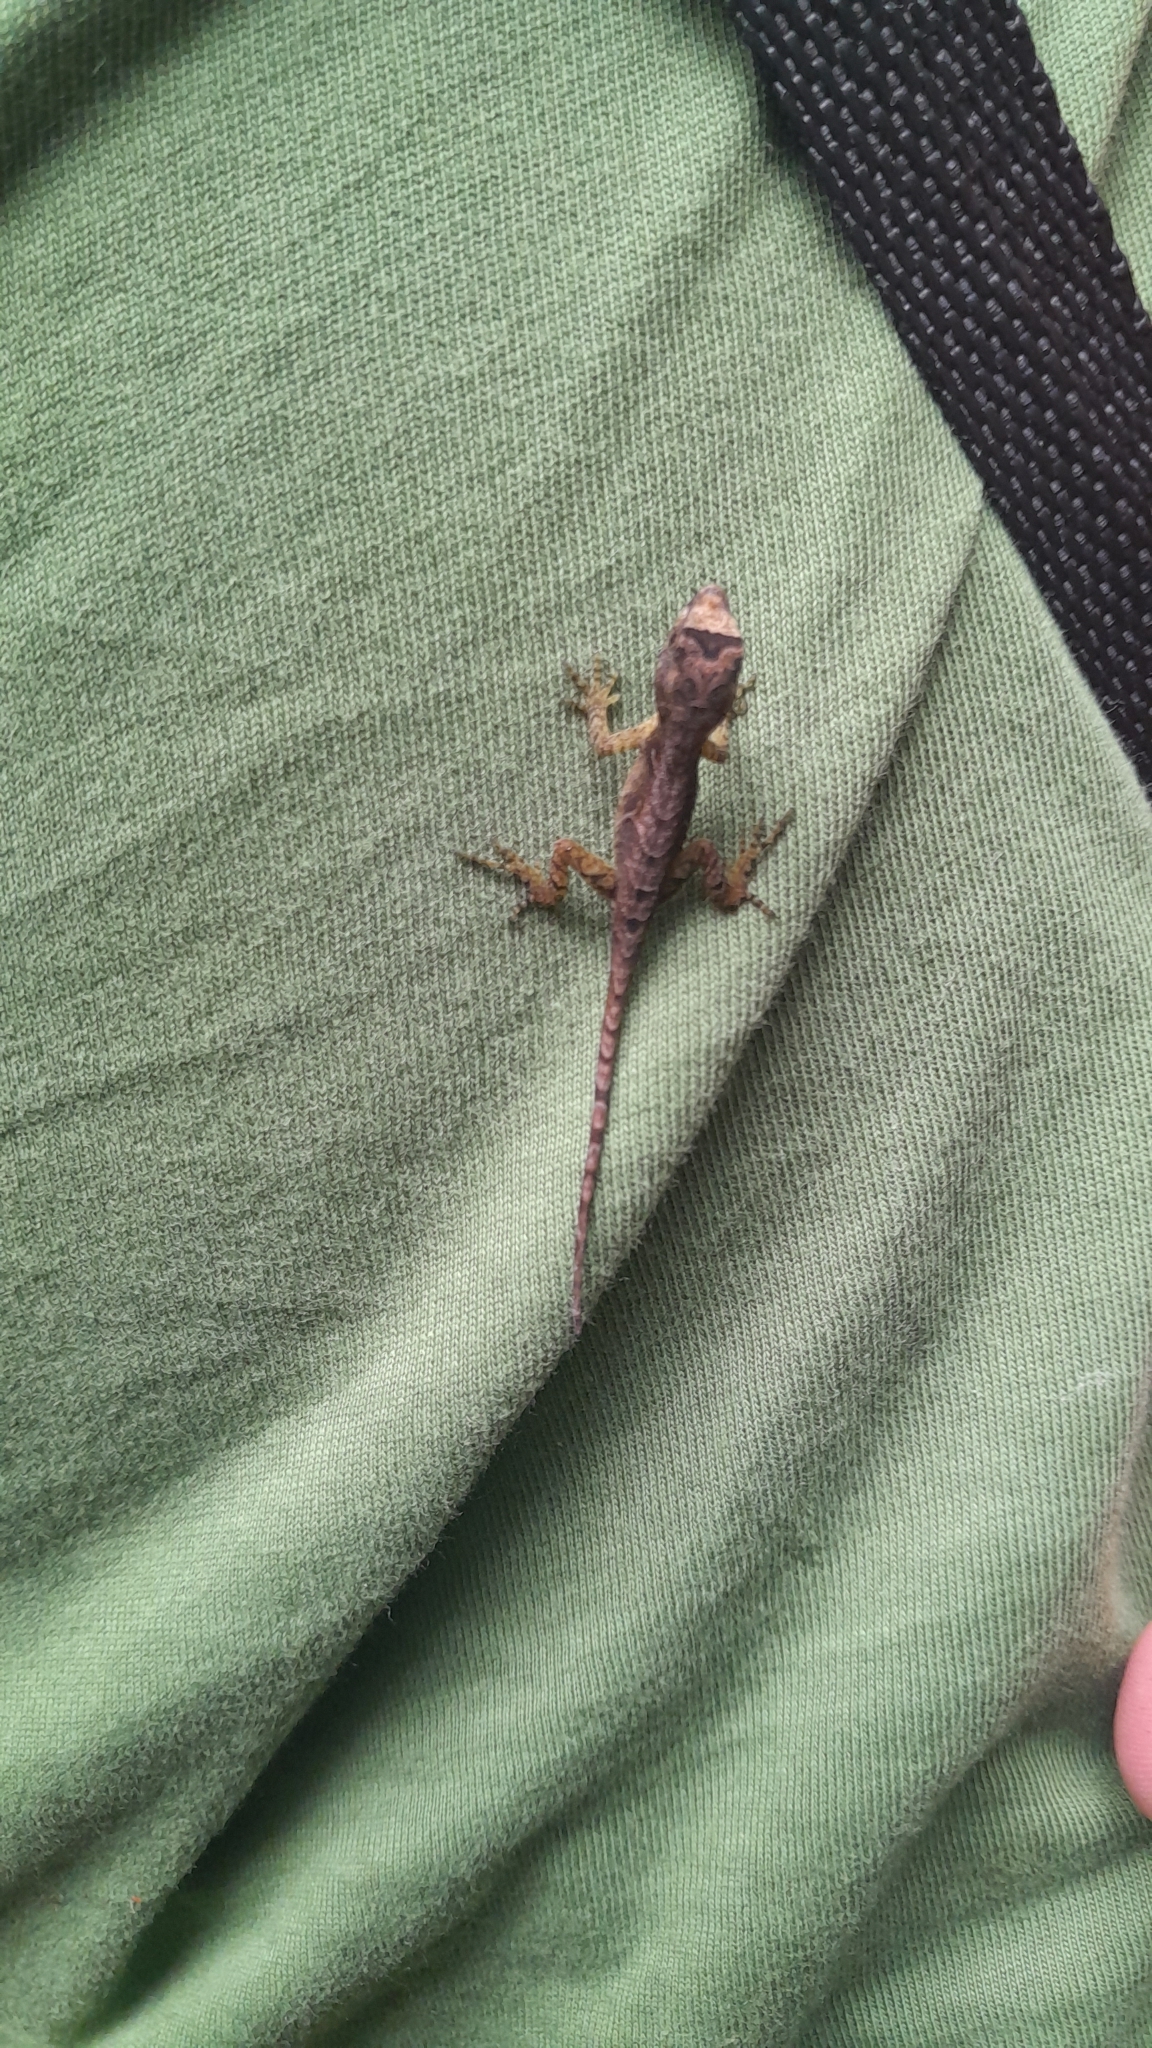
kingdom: Animalia
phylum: Chordata
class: Squamata
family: Dactyloidae
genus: Anolis
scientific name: Anolis humilis
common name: Humble anole
